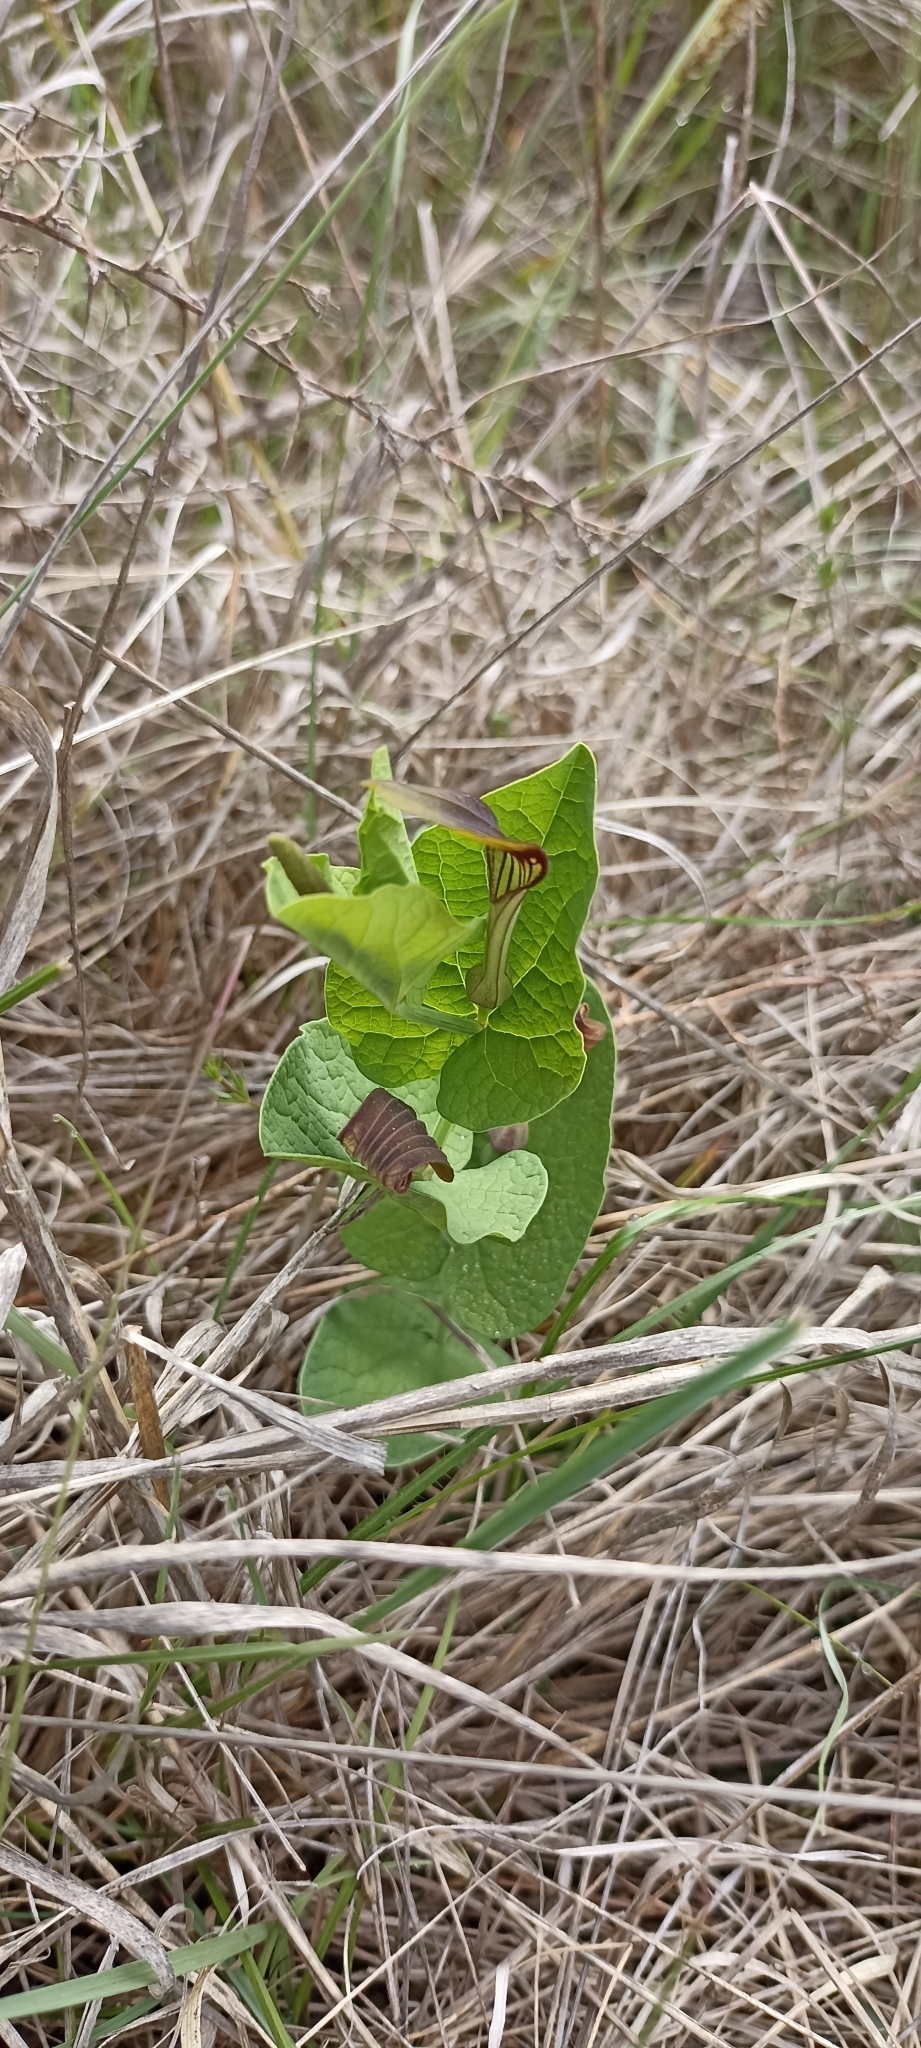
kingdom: Plantae
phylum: Tracheophyta
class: Magnoliopsida
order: Piperales
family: Aristolochiaceae
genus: Aristolochia
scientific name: Aristolochia rotunda
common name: Smearwort
